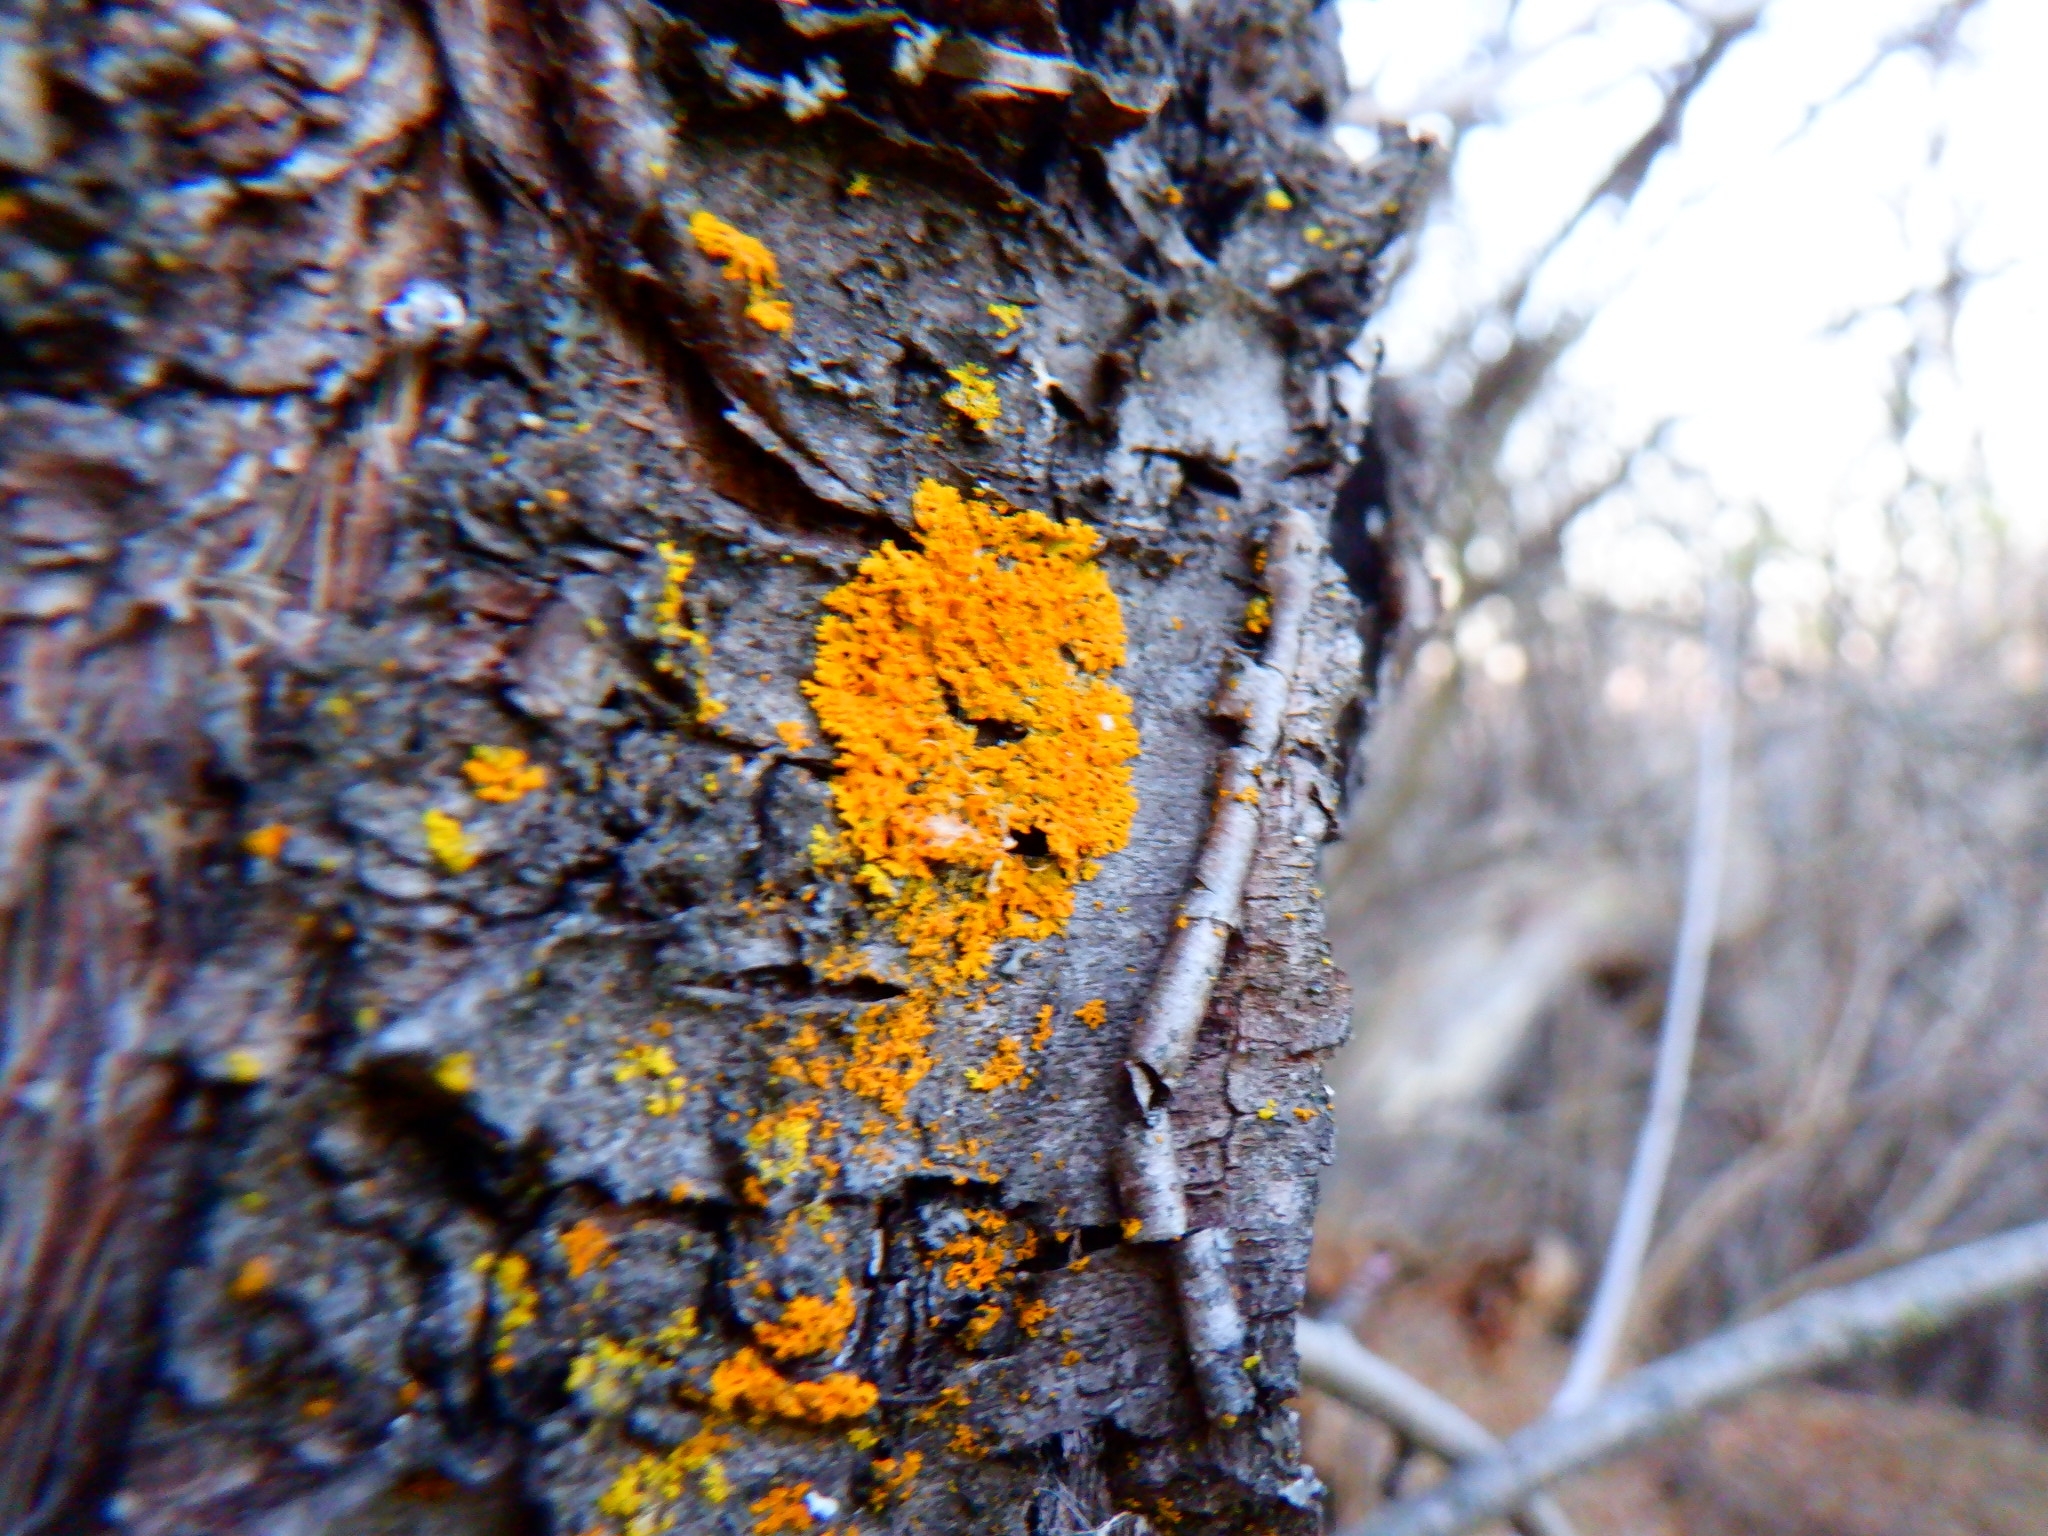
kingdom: Fungi
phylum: Ascomycota
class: Lecanoromycetes
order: Teloschistales
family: Teloschistaceae
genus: Gallowayella
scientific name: Gallowayella weberi
